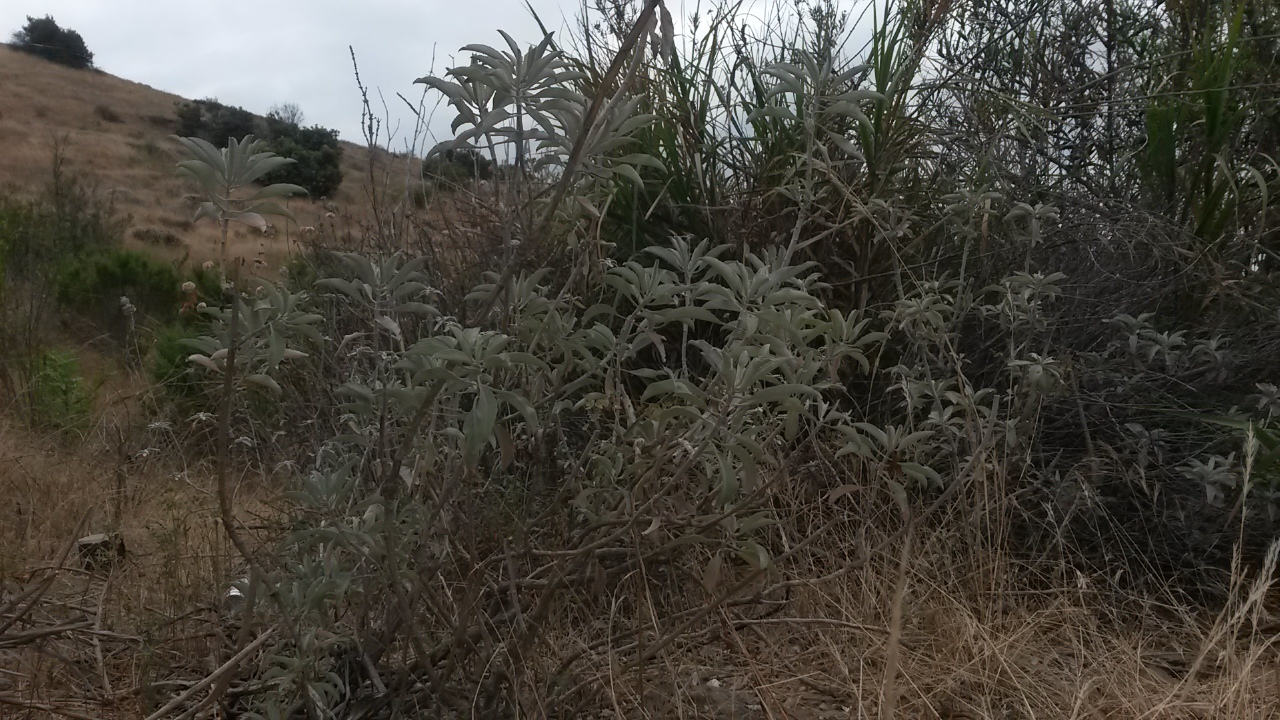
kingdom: Plantae
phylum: Tracheophyta
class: Magnoliopsida
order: Lamiales
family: Lamiaceae
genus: Salvia
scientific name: Salvia apiana
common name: White sage
